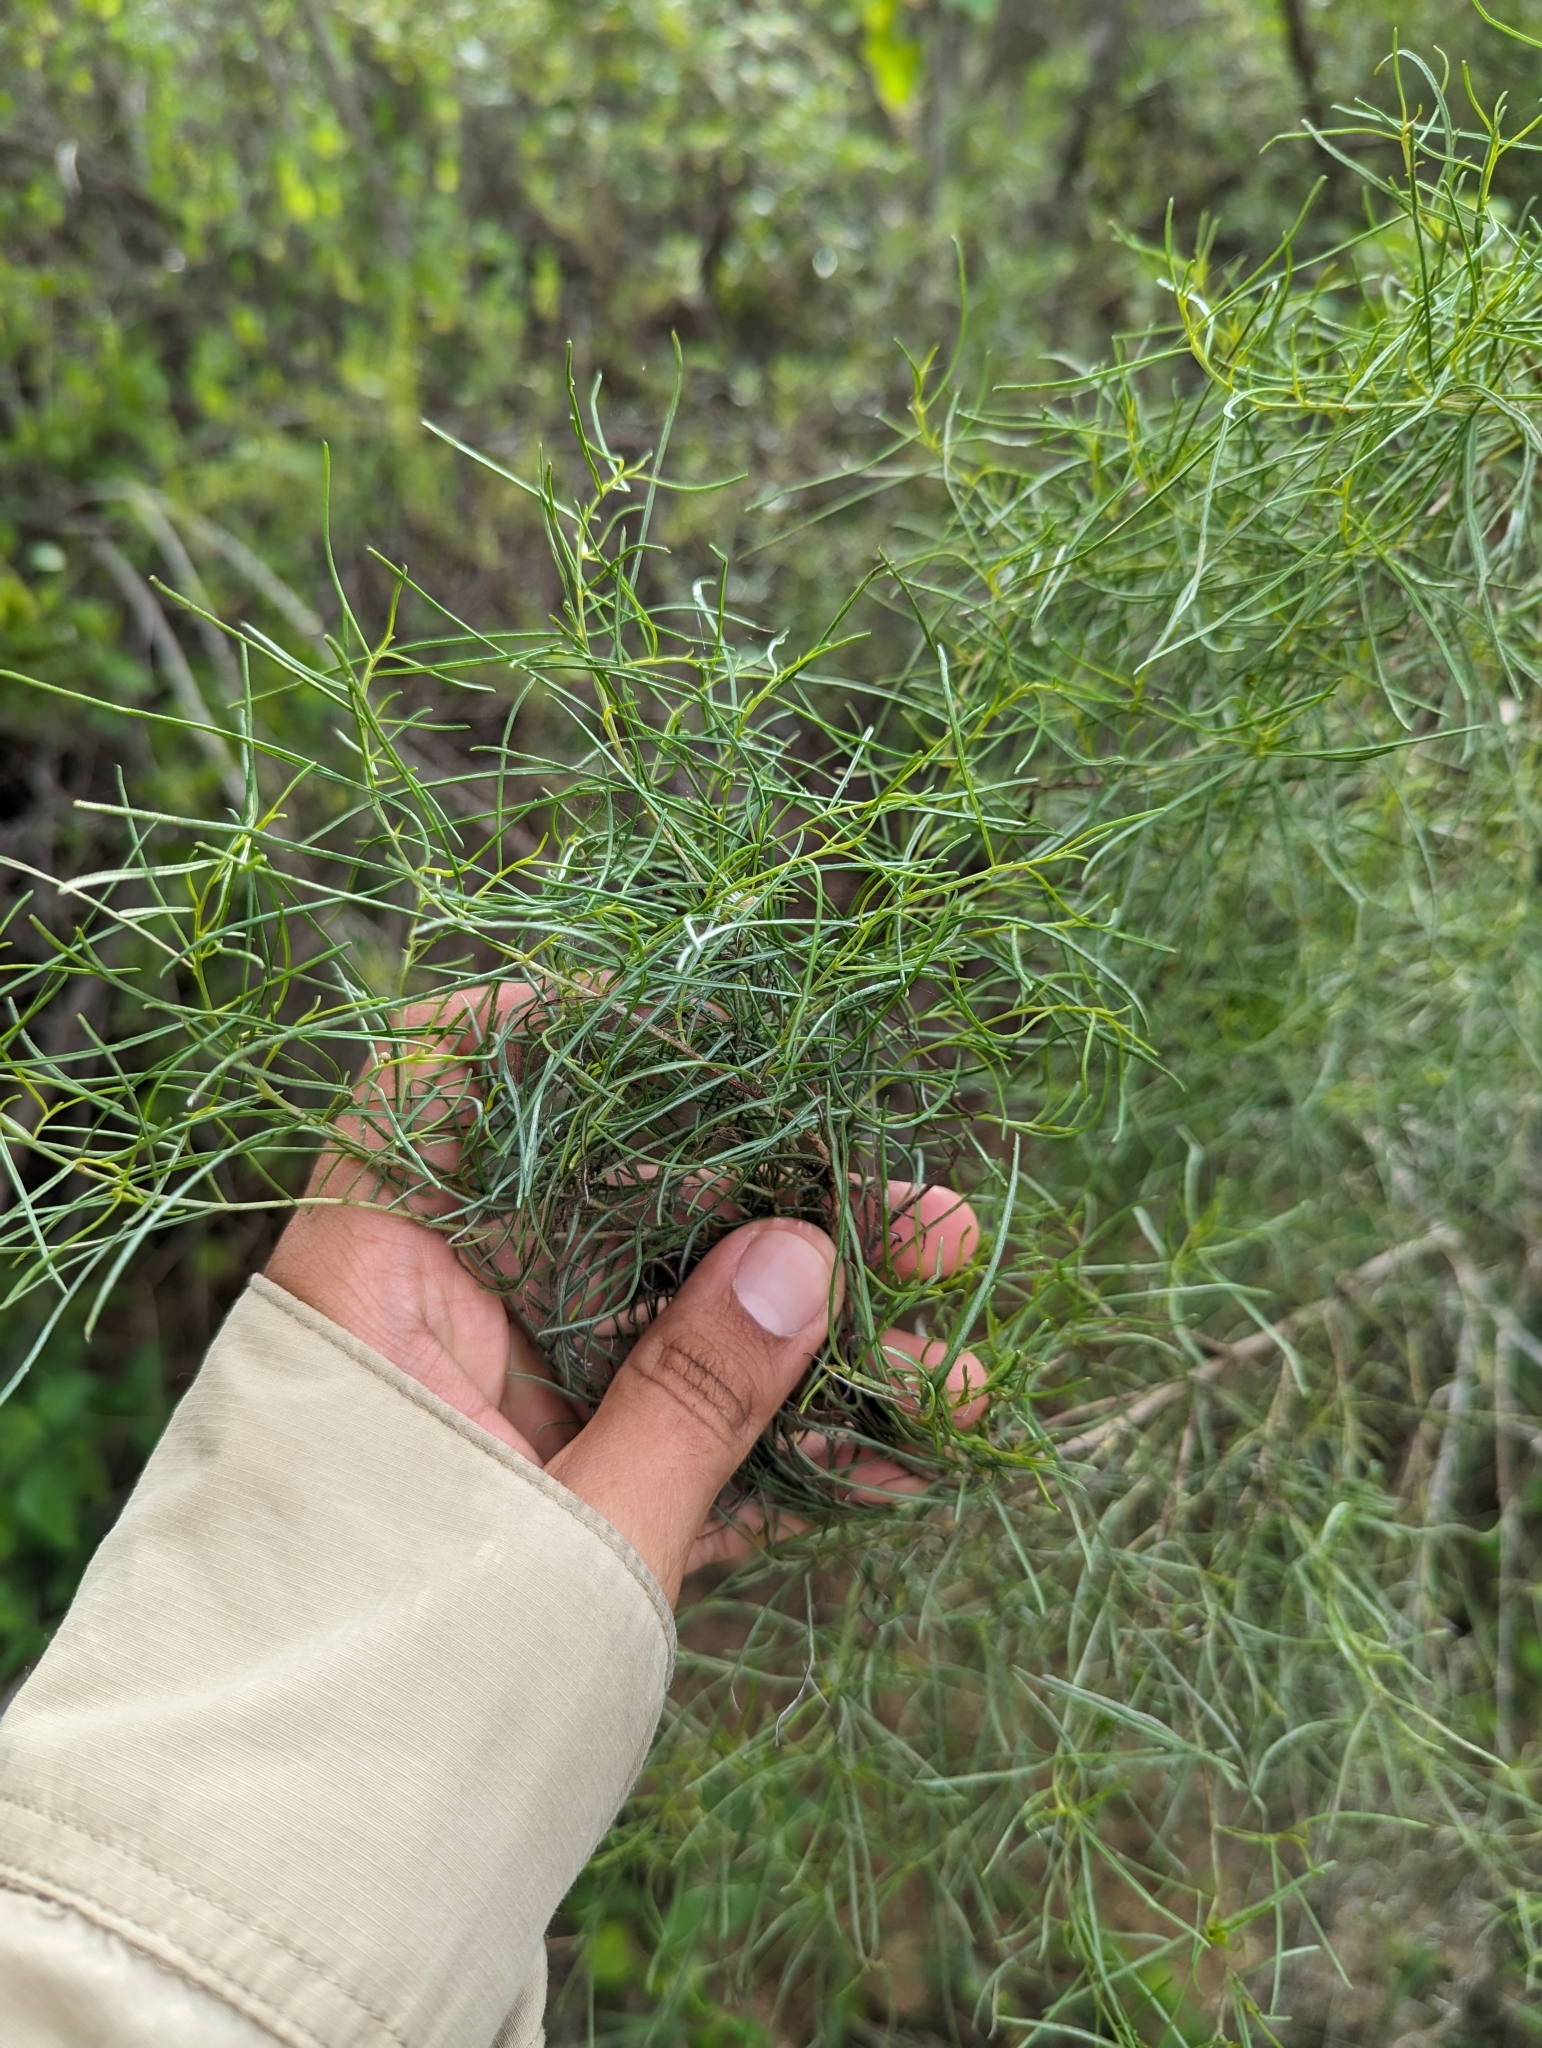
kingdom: Plantae
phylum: Tracheophyta
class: Magnoliopsida
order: Asterales
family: Asteraceae
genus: Ambrosia
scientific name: Ambrosia monogyra
